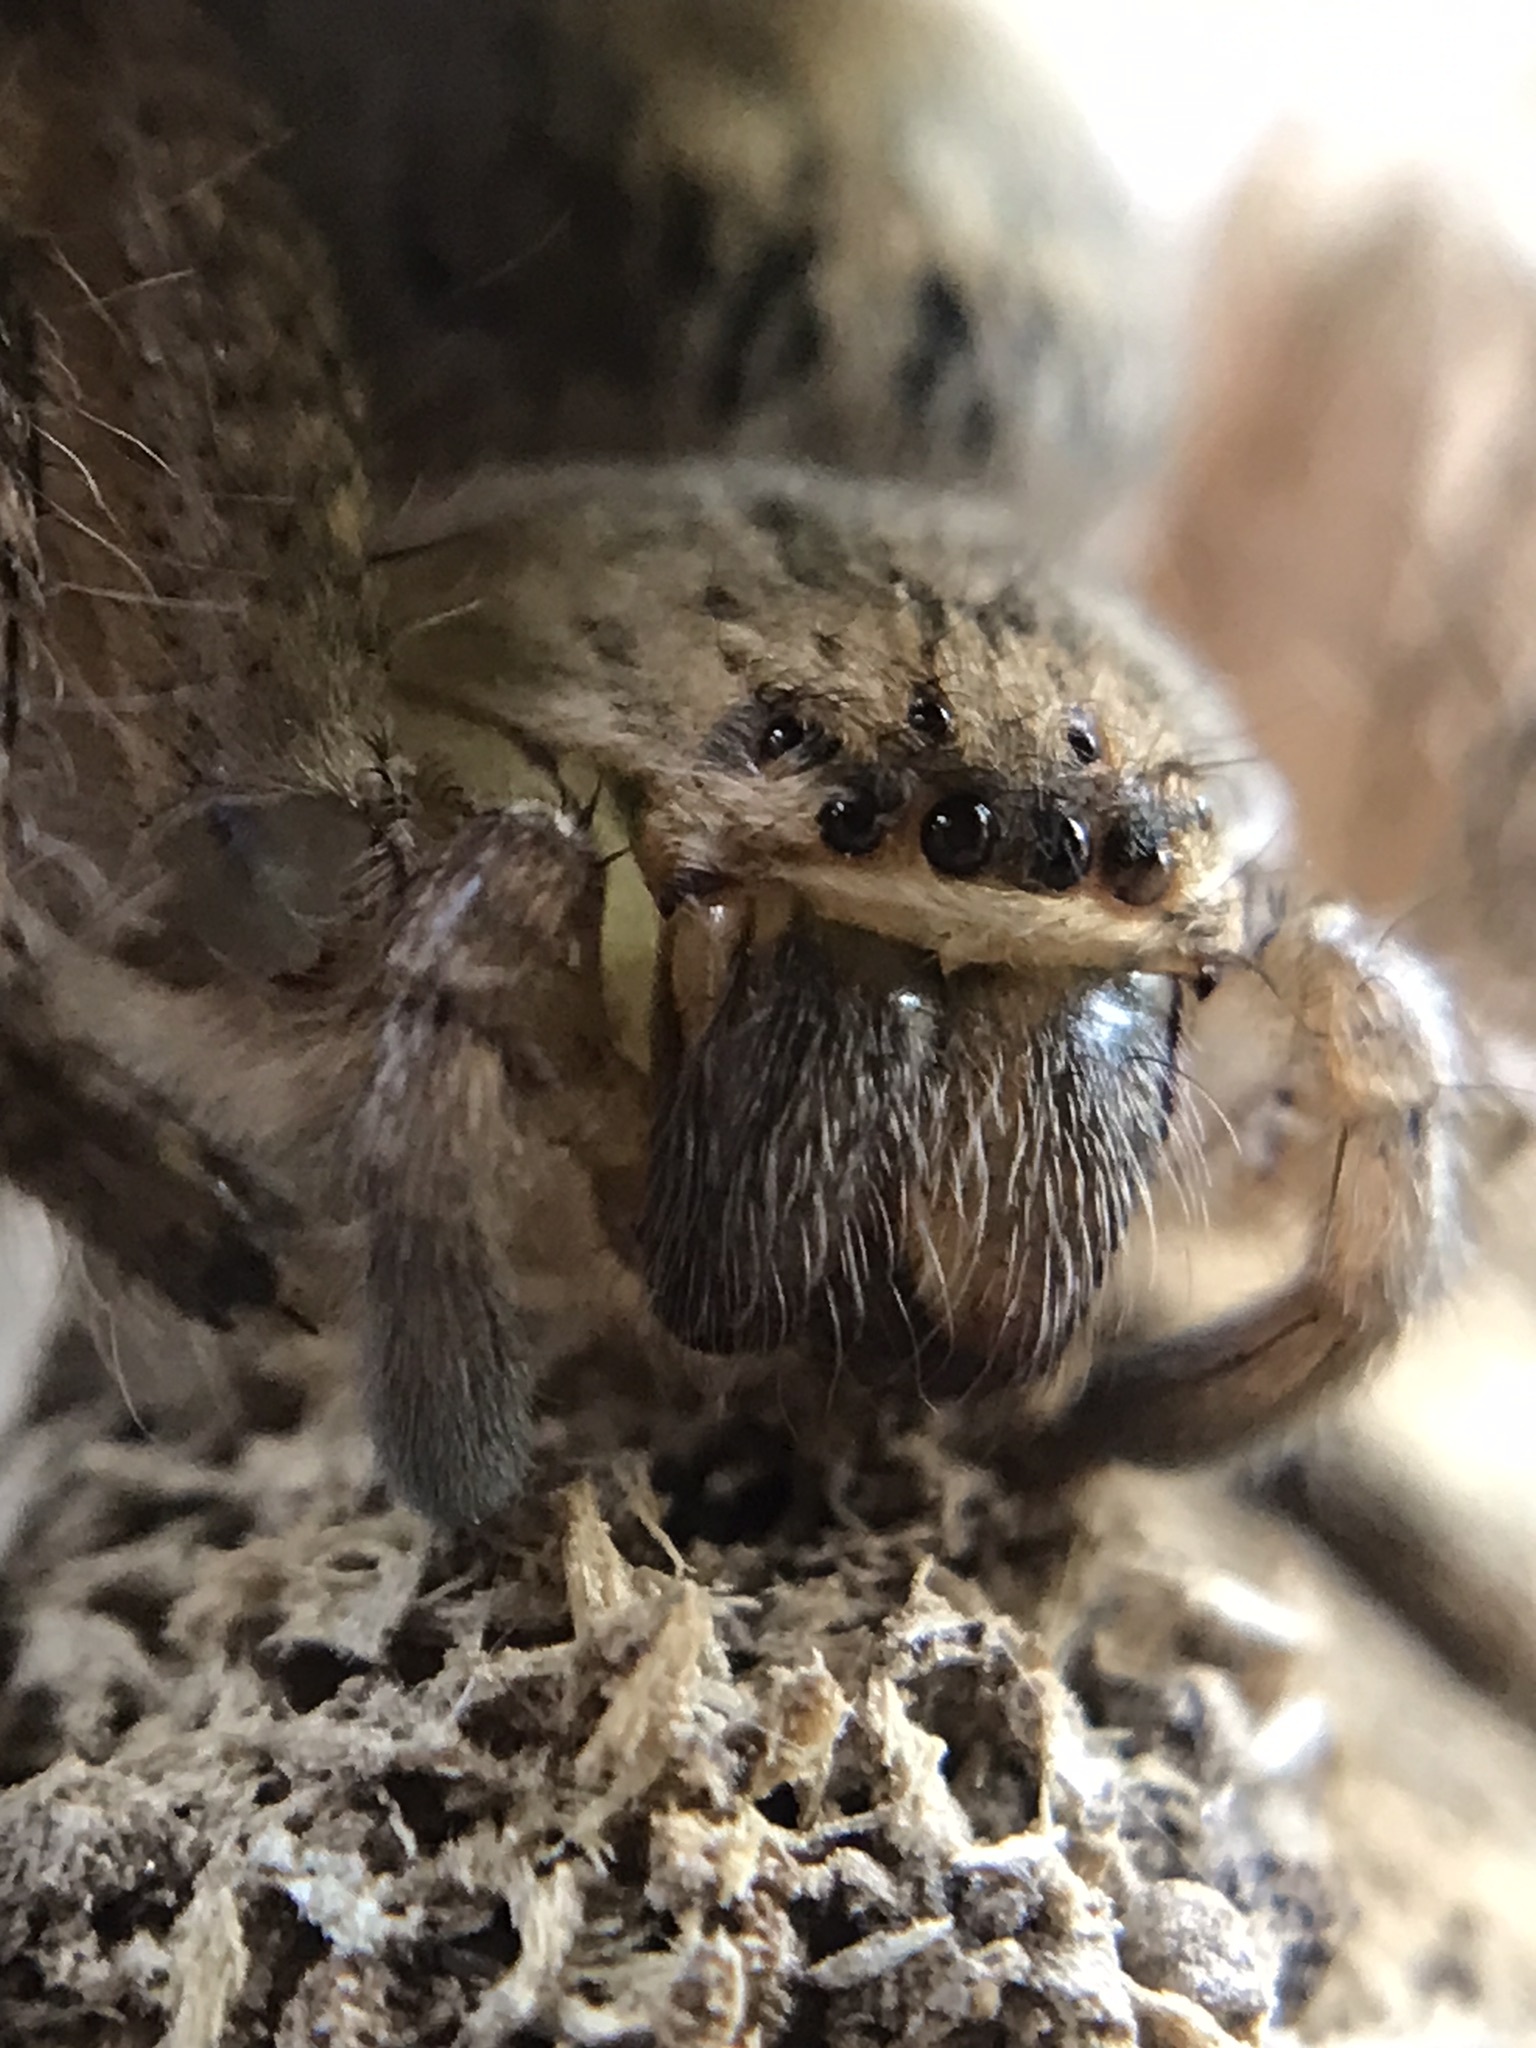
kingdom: Animalia
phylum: Arthropoda
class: Arachnida
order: Araneae
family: Sparassidae
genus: Polybetes
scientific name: Polybetes rapidus
